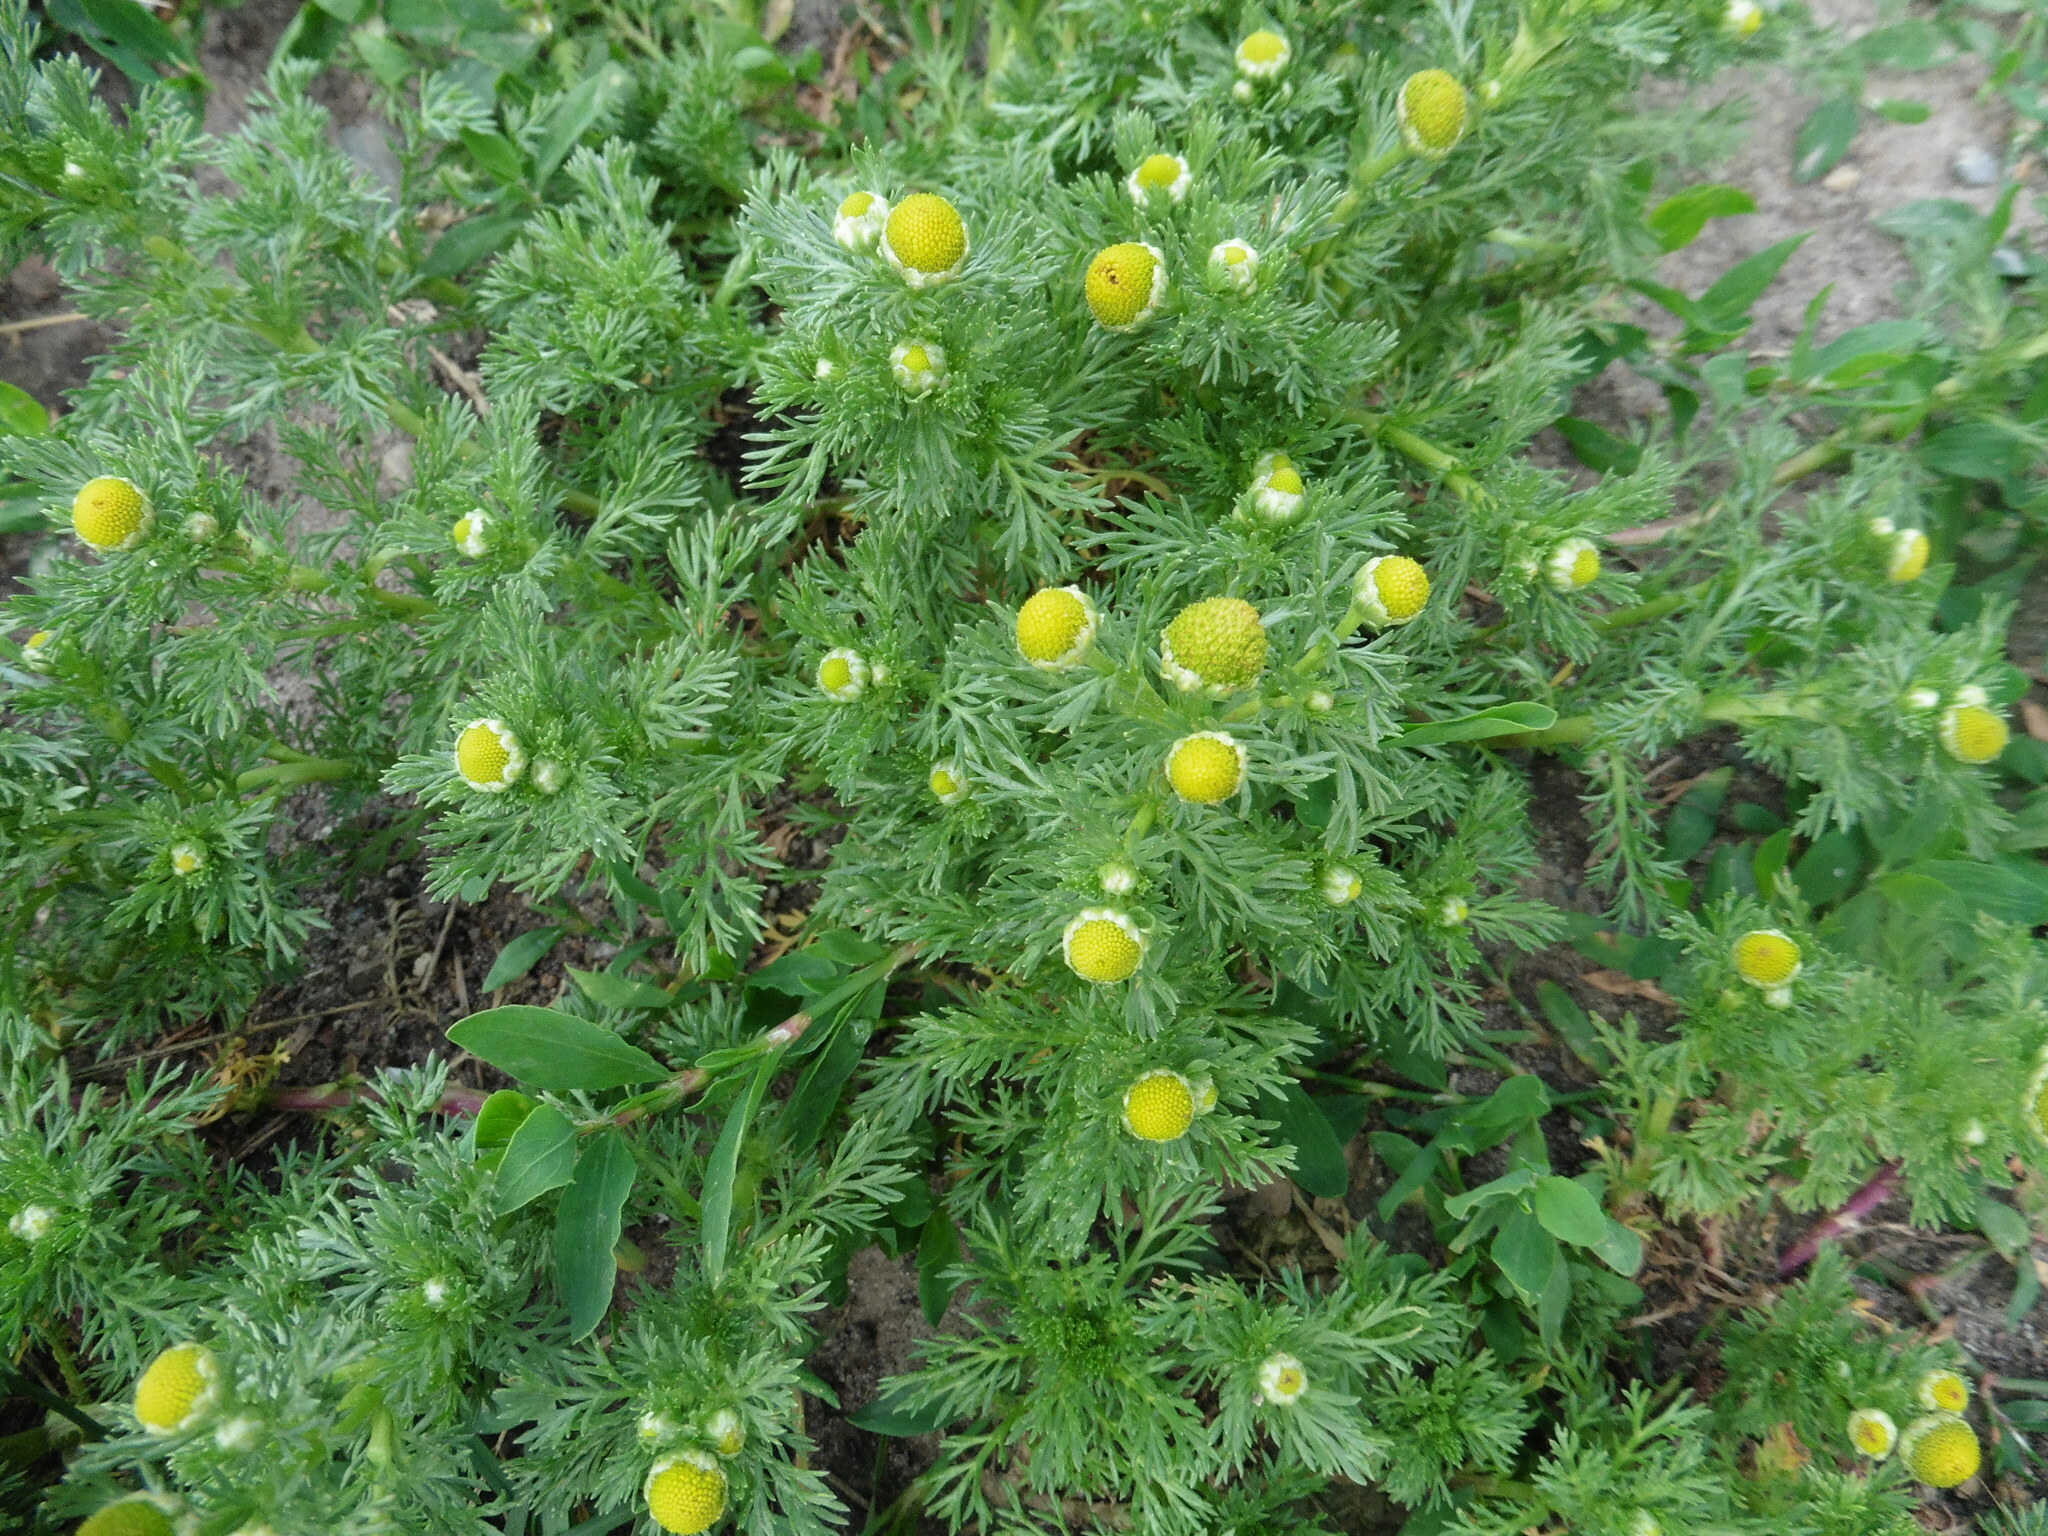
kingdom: Plantae
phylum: Tracheophyta
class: Magnoliopsida
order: Asterales
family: Asteraceae
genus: Matricaria
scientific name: Matricaria discoidea
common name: Disc mayweed
